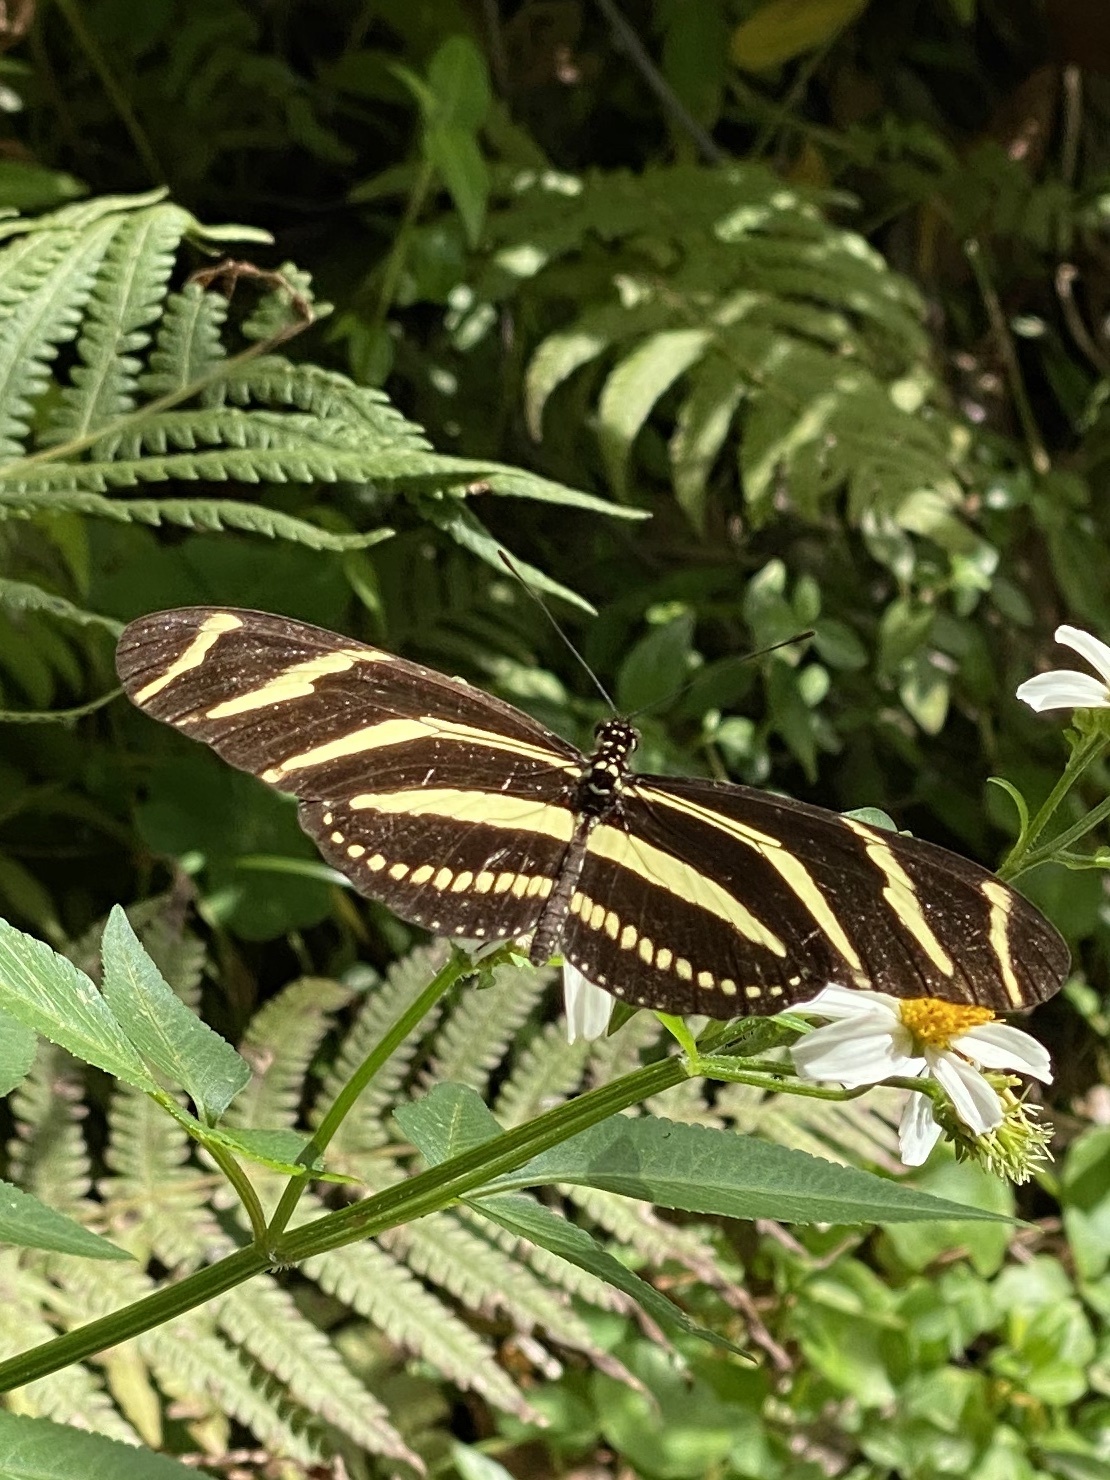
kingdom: Animalia
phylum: Arthropoda
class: Insecta
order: Lepidoptera
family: Nymphalidae
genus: Heliconius
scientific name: Heliconius charithonia
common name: Zebra long wing
